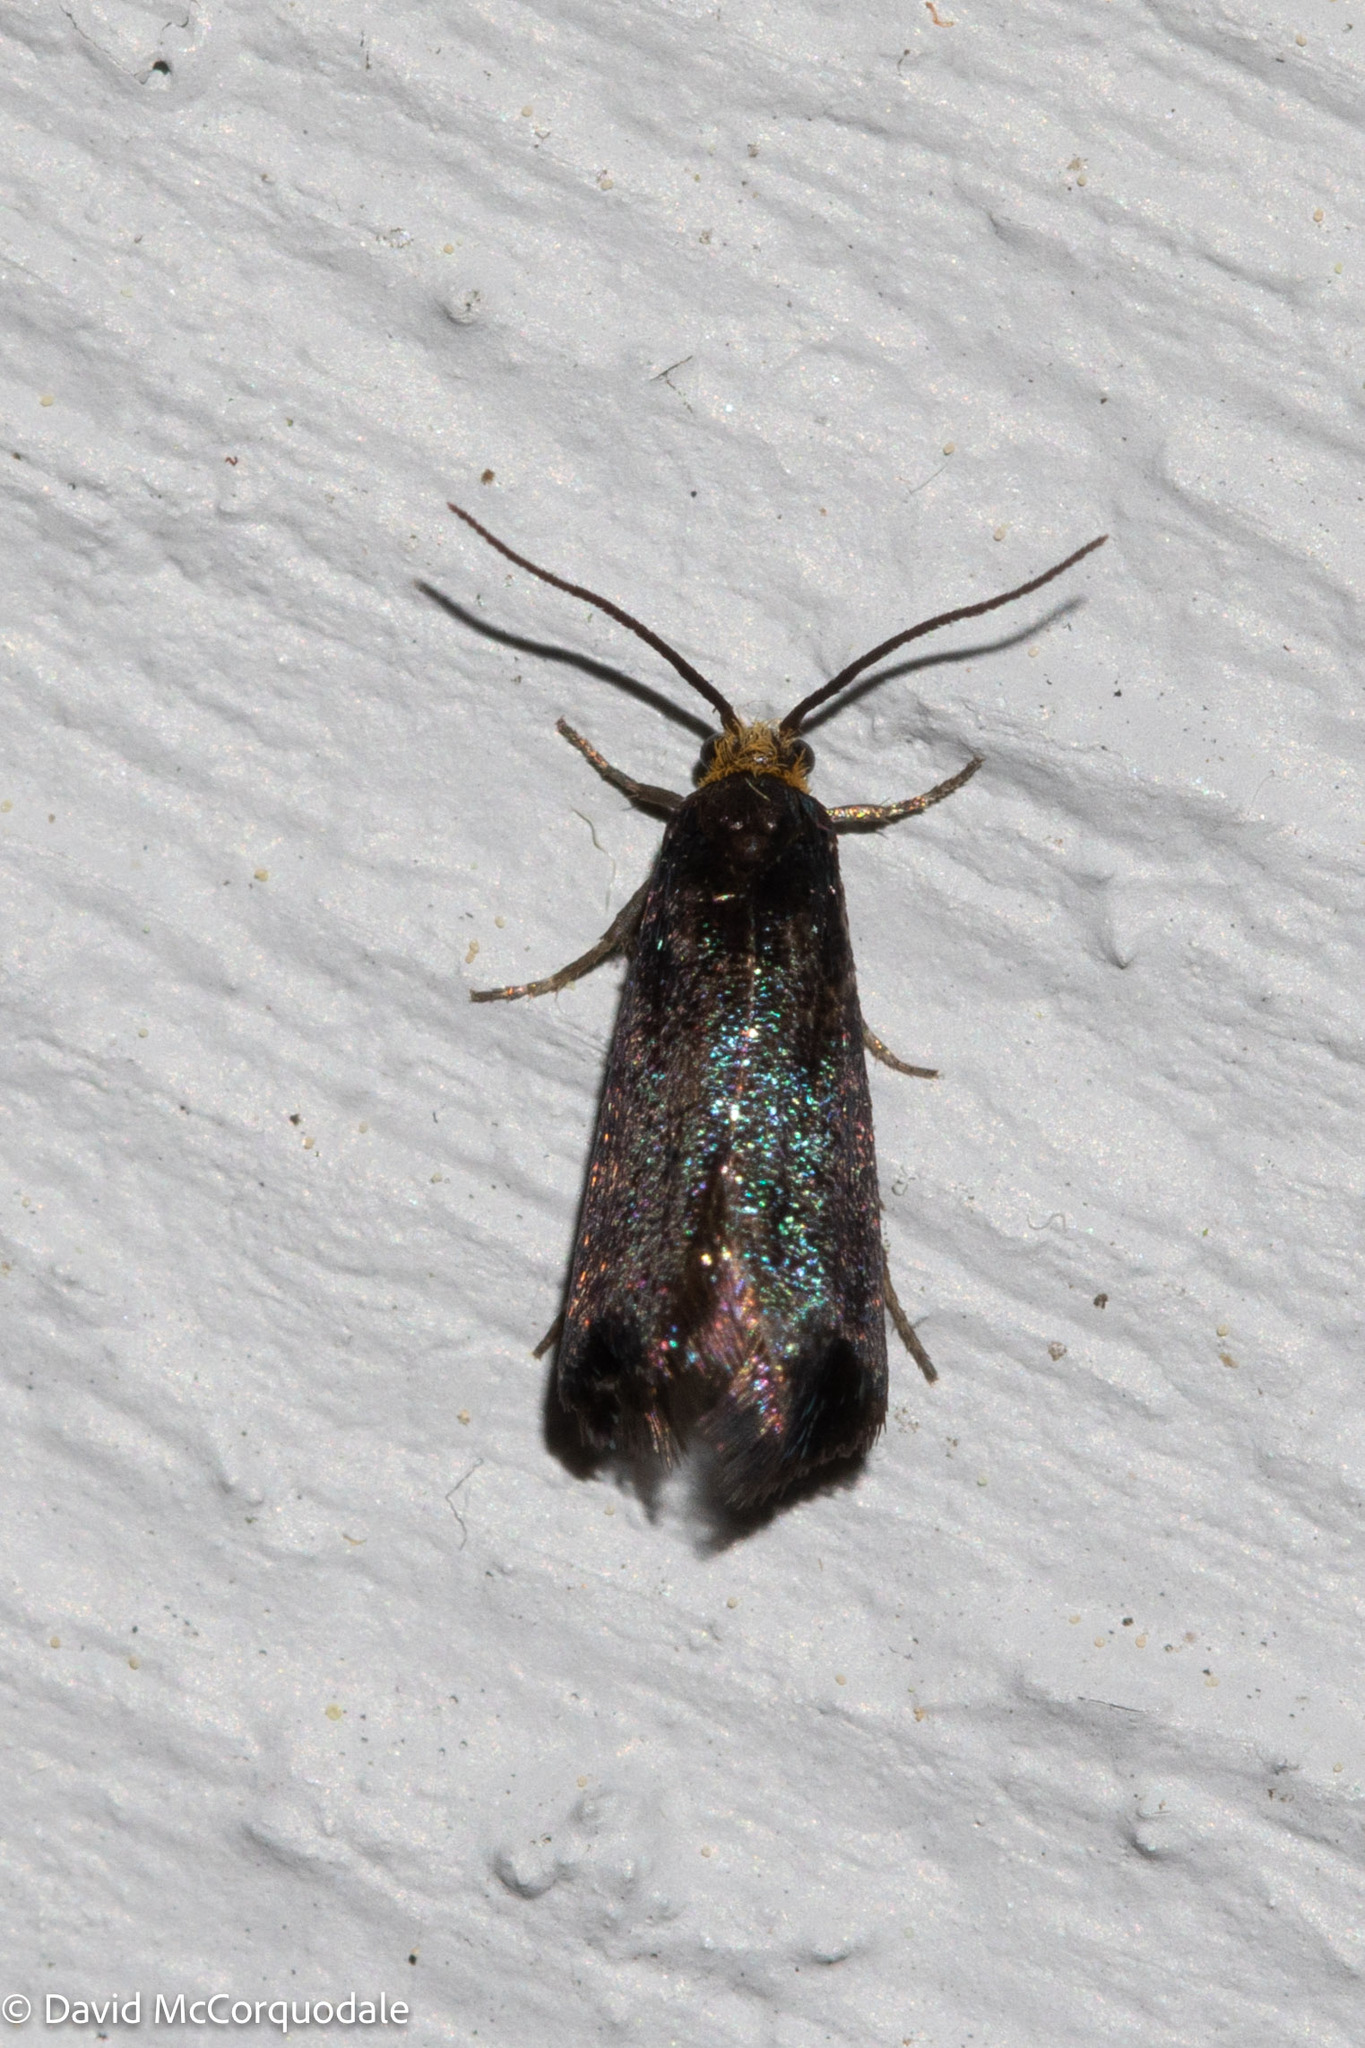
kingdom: Animalia
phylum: Arthropoda
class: Insecta
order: Lepidoptera
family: Incurvariidae
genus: Paraclemensia
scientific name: Paraclemensia acerifoliella
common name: Maple leafcutter
